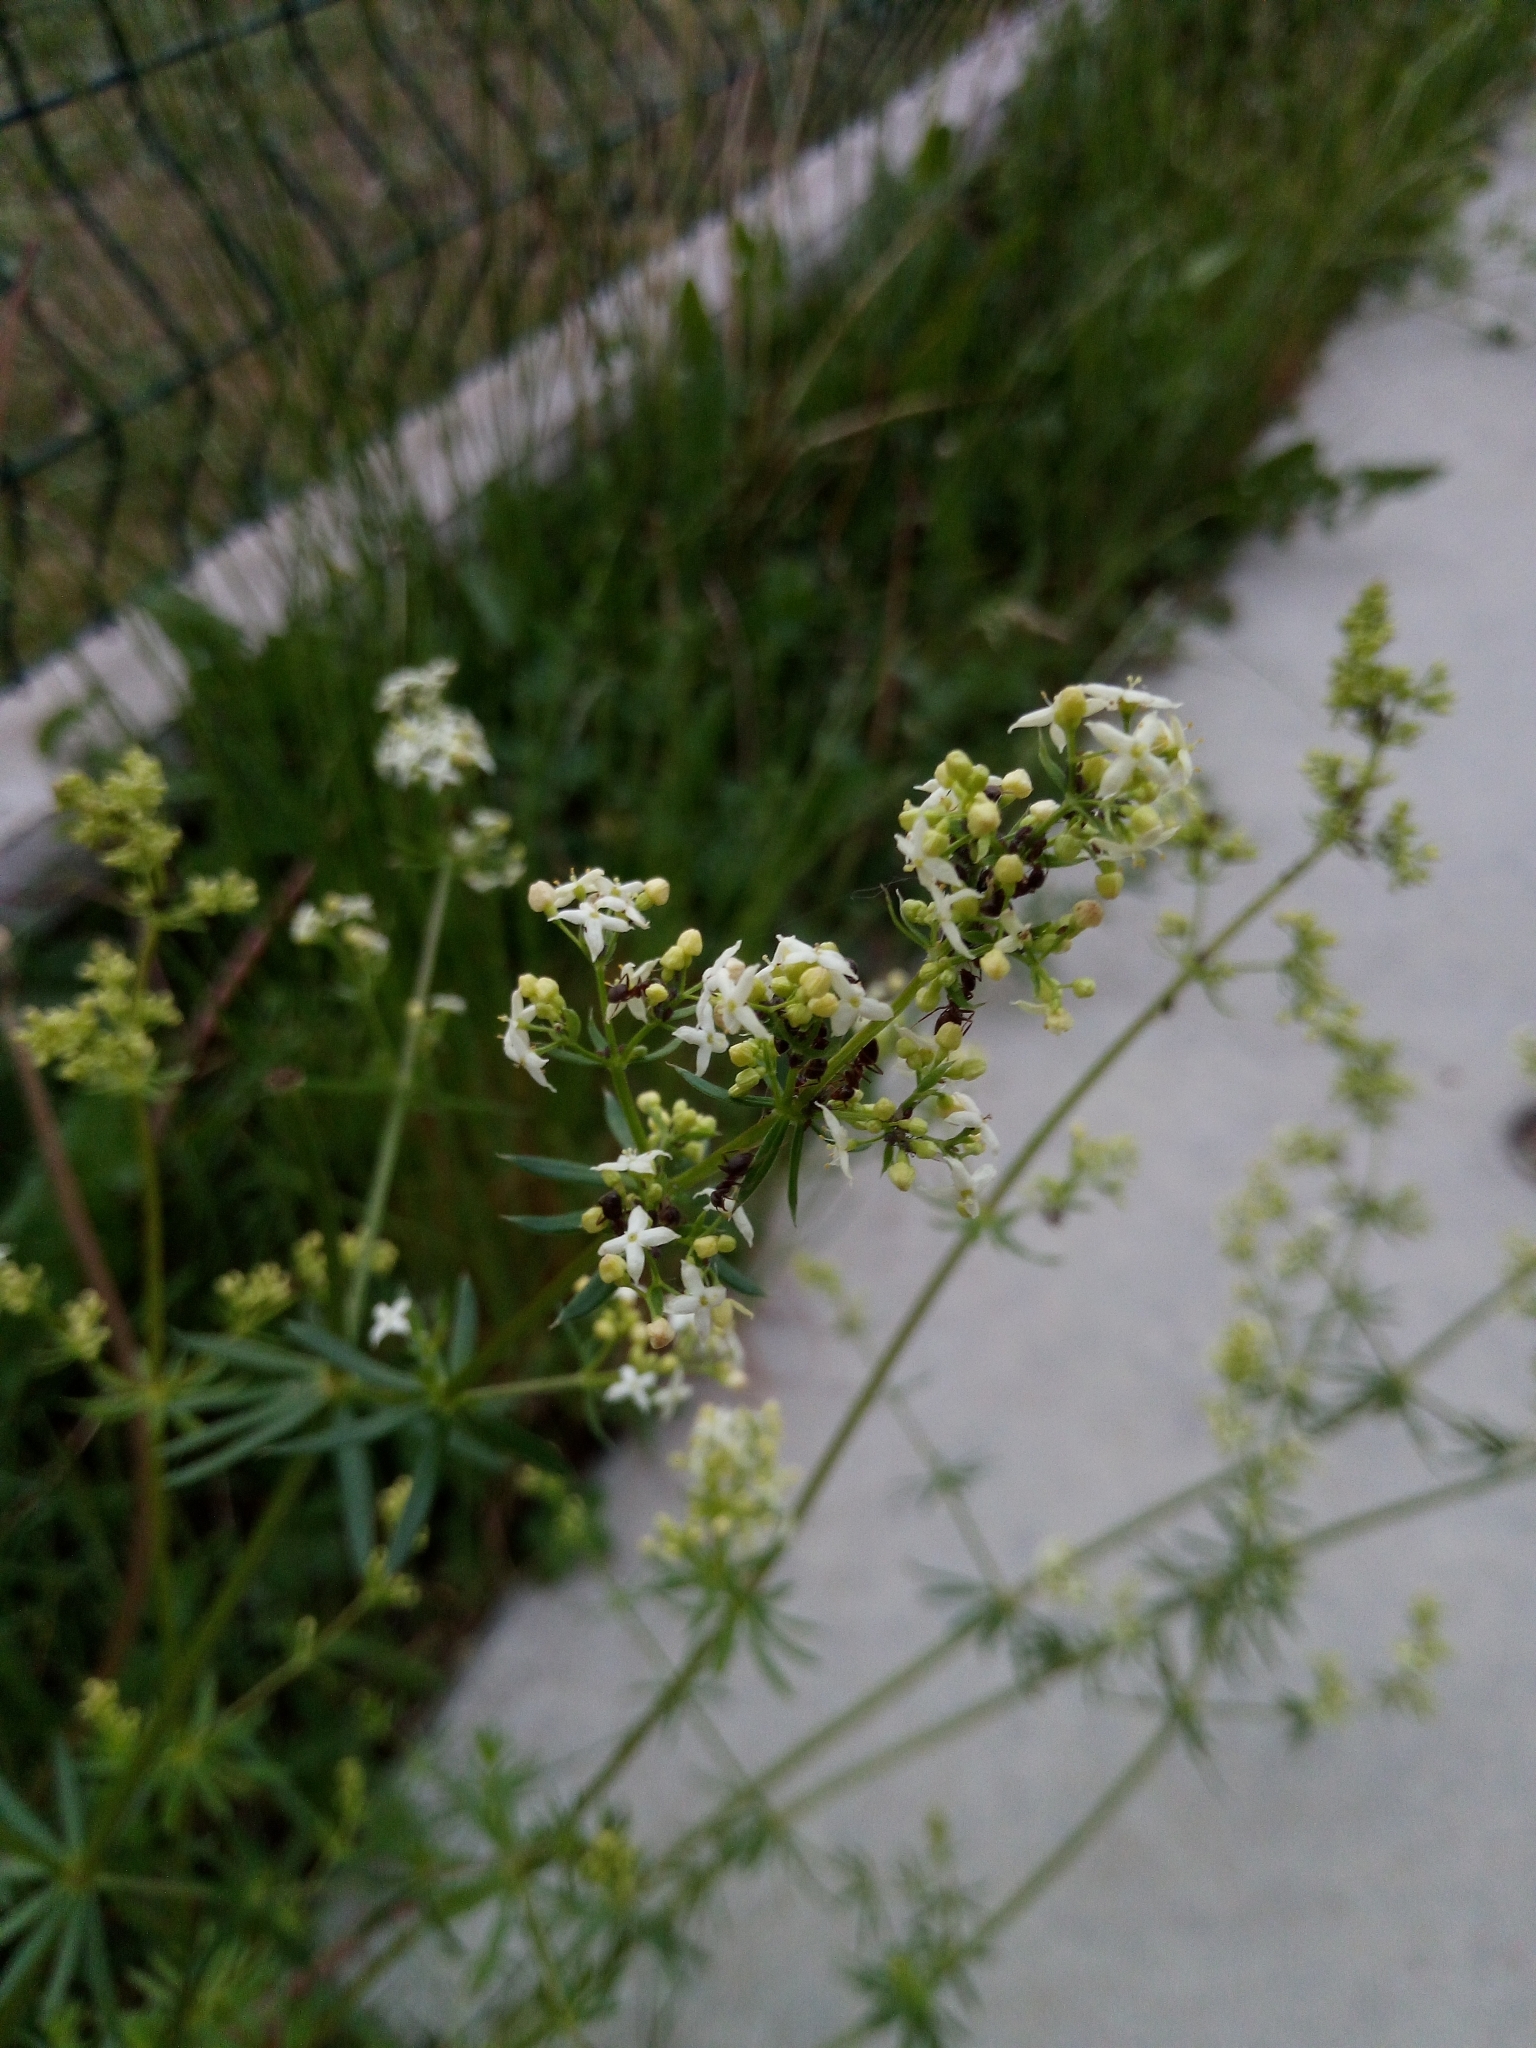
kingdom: Plantae
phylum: Tracheophyta
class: Magnoliopsida
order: Gentianales
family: Rubiaceae
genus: Galium
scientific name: Galium album
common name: White bedstraw
